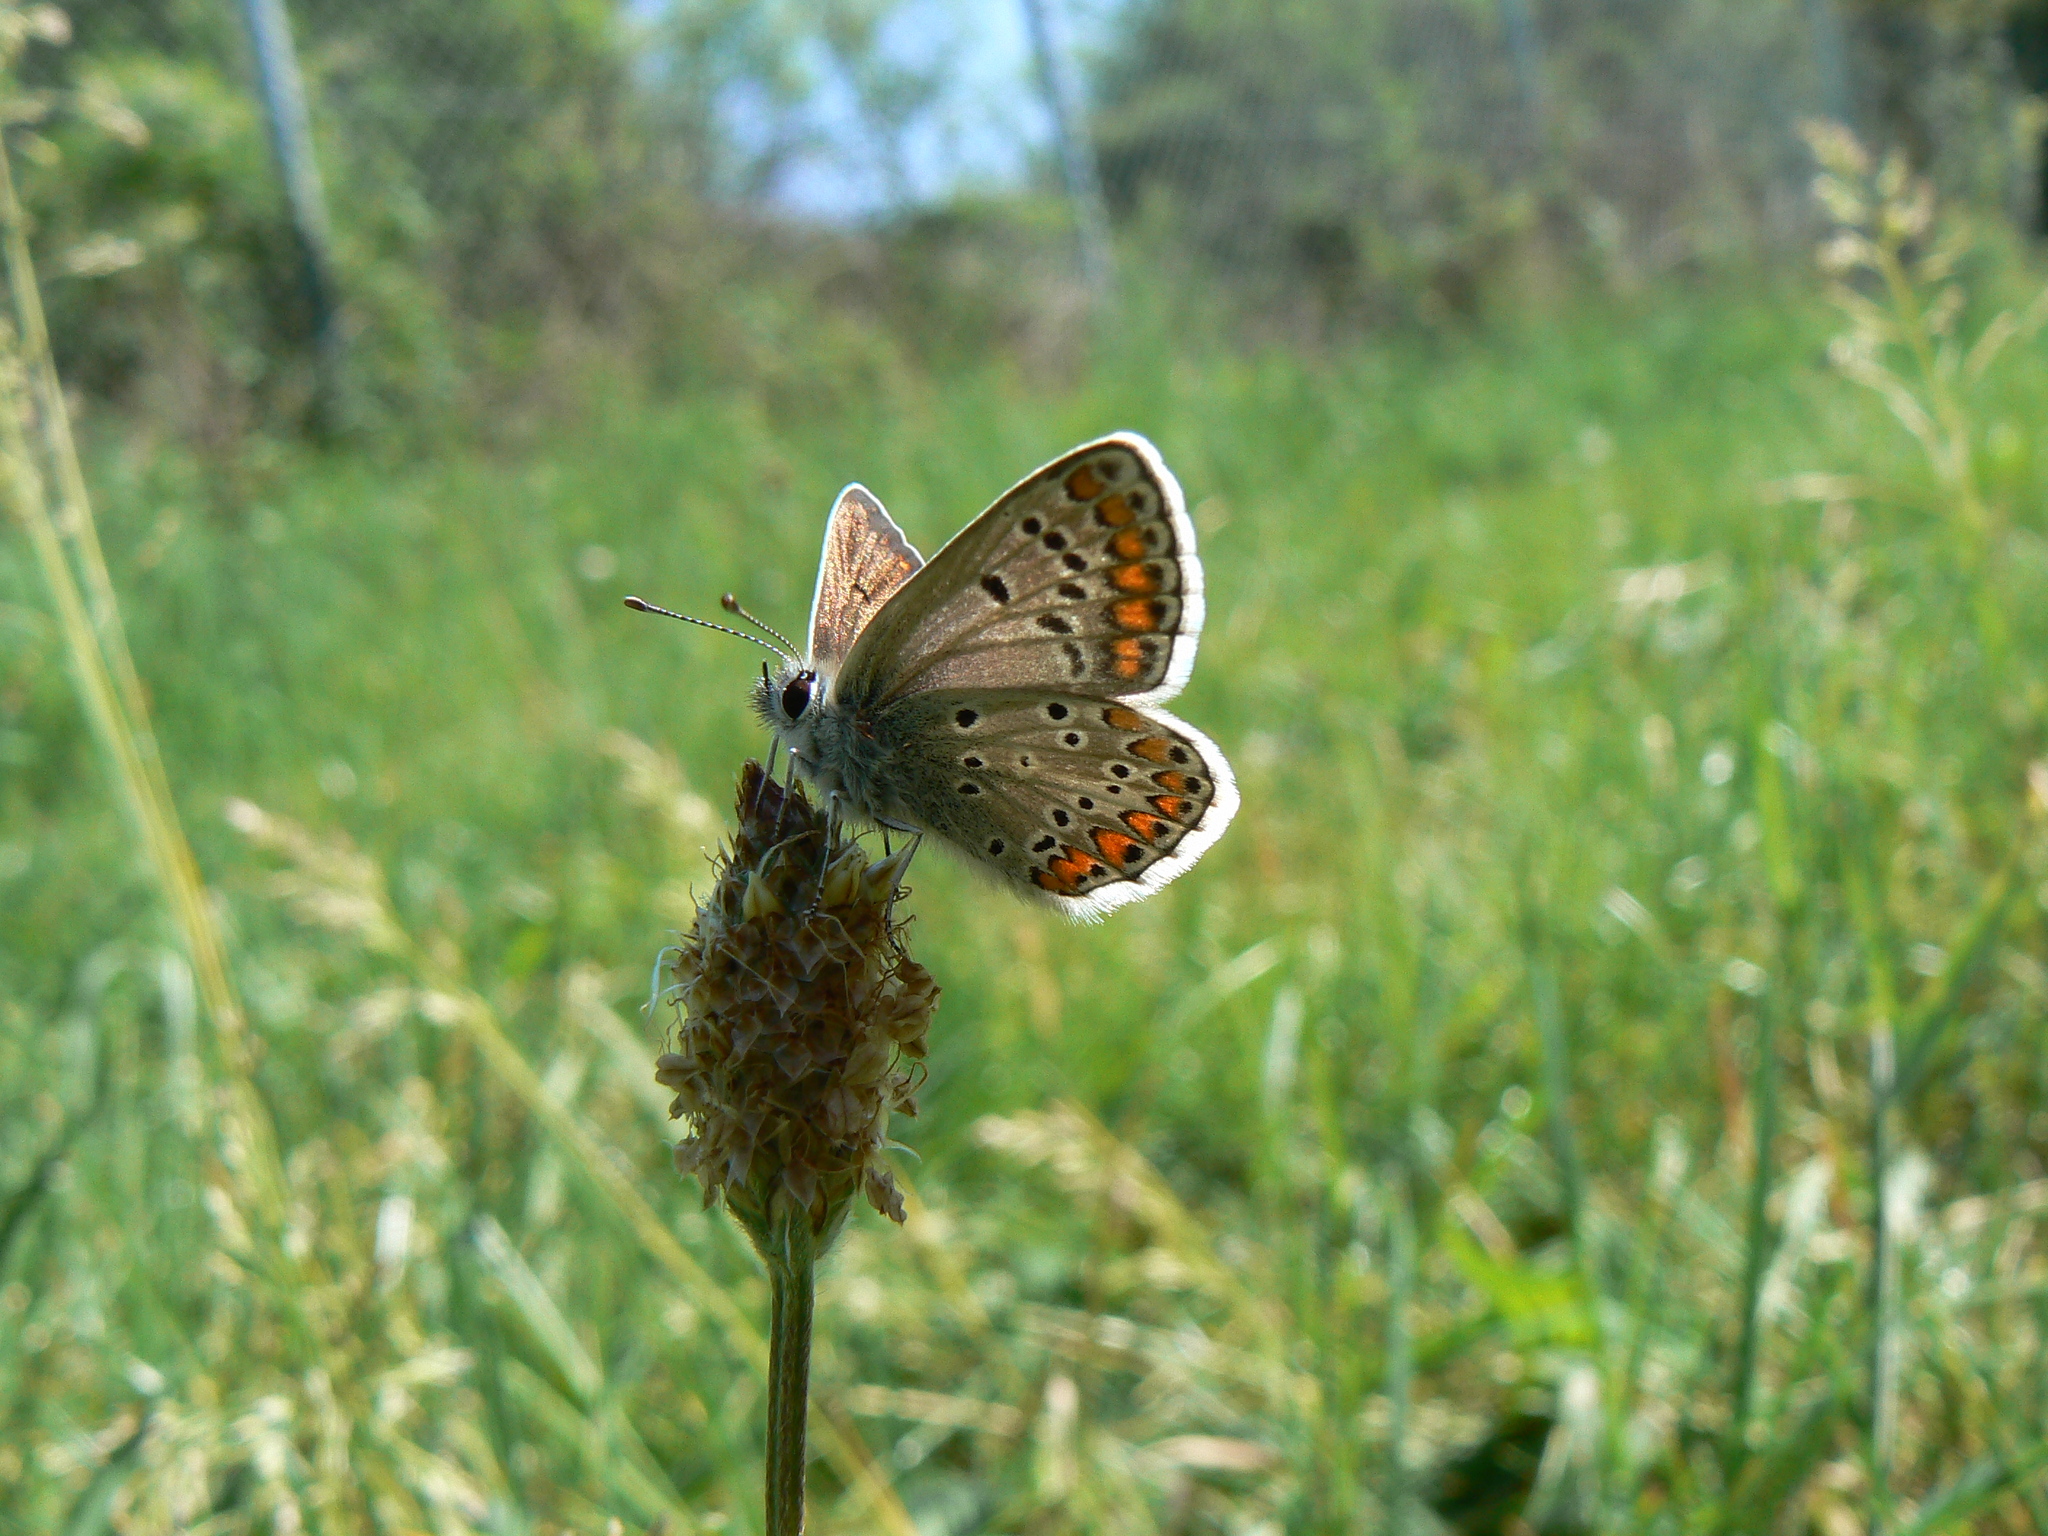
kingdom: Animalia
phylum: Arthropoda
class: Insecta
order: Lepidoptera
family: Lycaenidae
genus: Aricia
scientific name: Aricia agestis
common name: Brown argus
